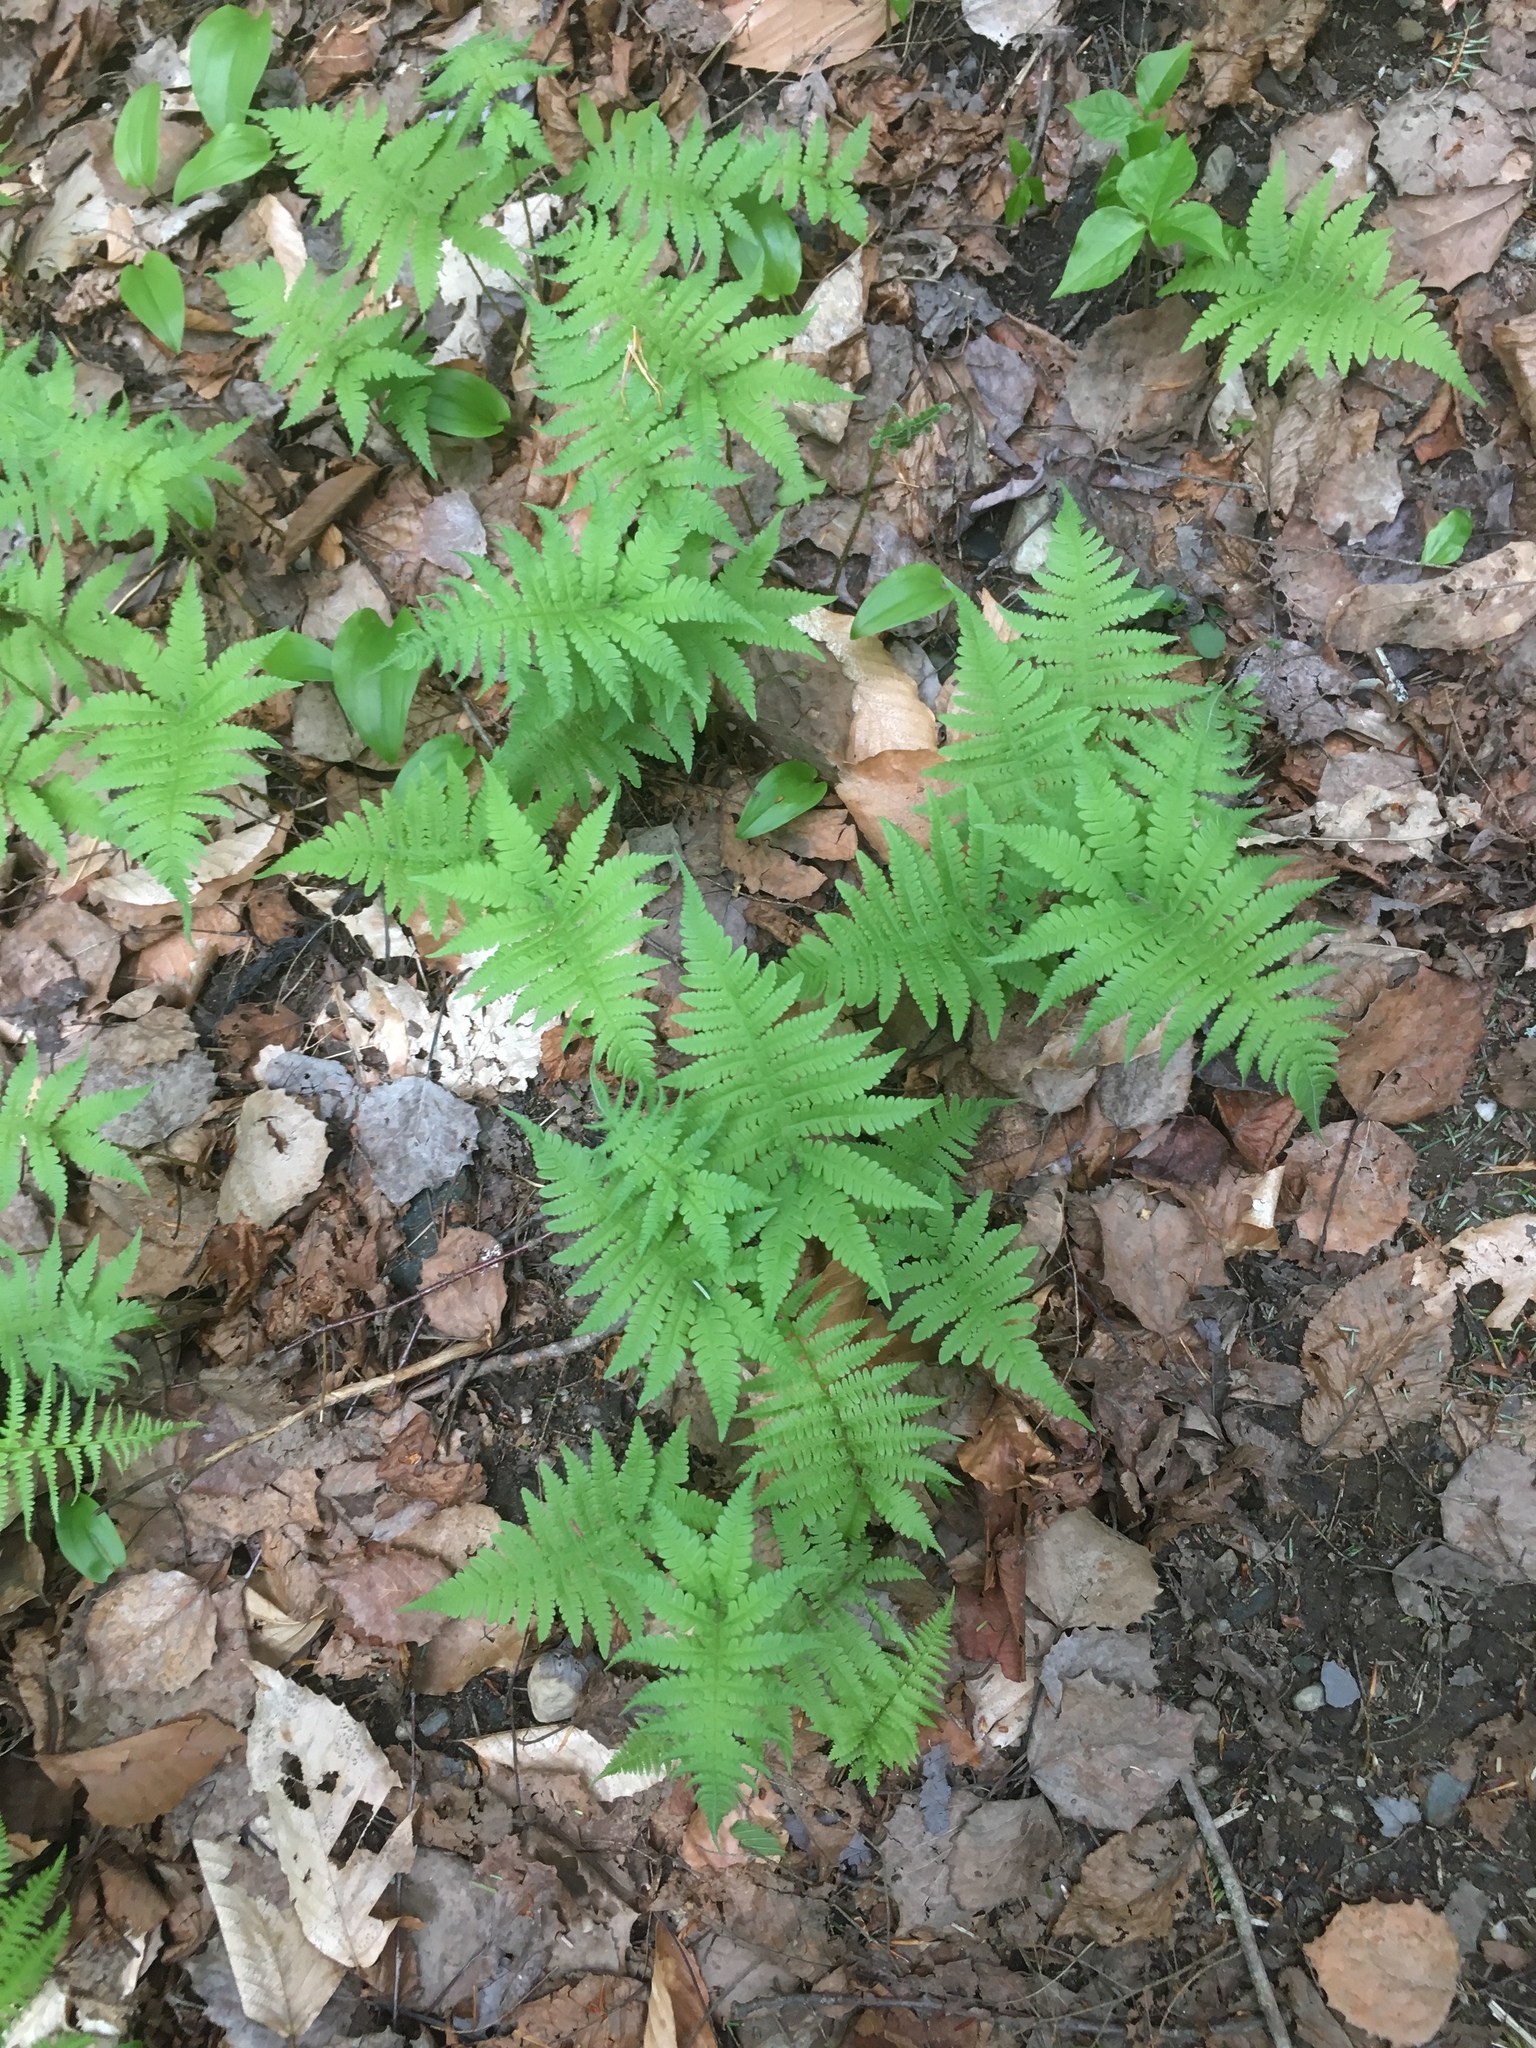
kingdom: Plantae
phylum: Tracheophyta
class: Polypodiopsida
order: Polypodiales
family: Thelypteridaceae
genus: Phegopteris
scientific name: Phegopteris connectilis
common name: Beech fern
